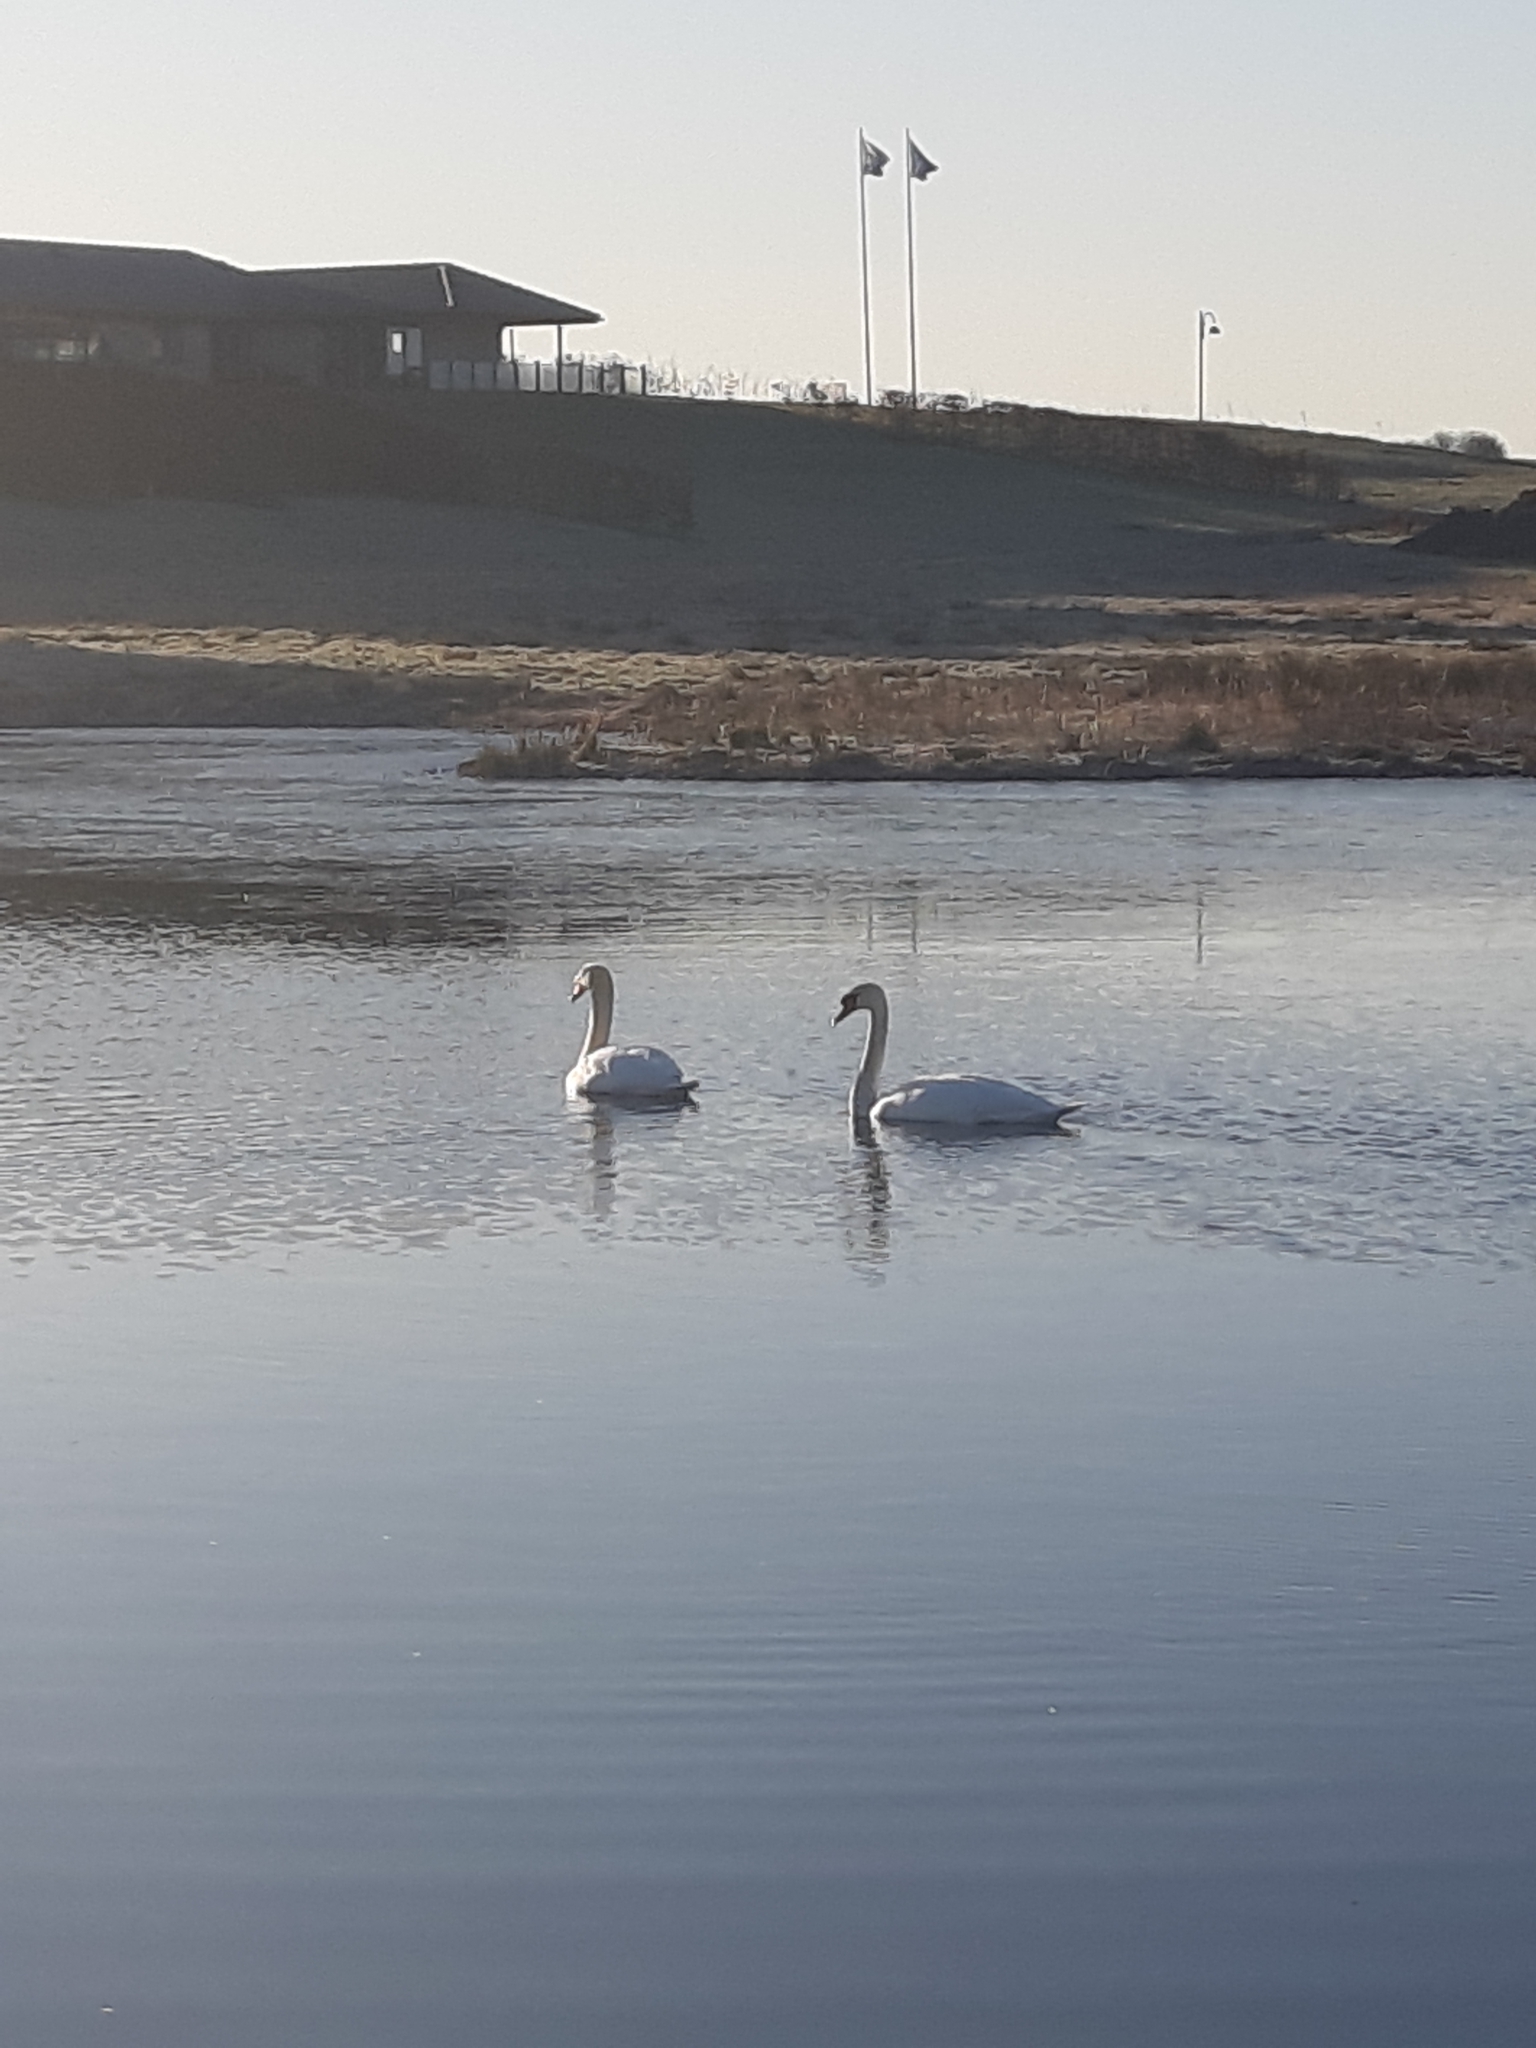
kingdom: Animalia
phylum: Chordata
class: Aves
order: Anseriformes
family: Anatidae
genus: Cygnus
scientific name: Cygnus olor
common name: Mute swan
